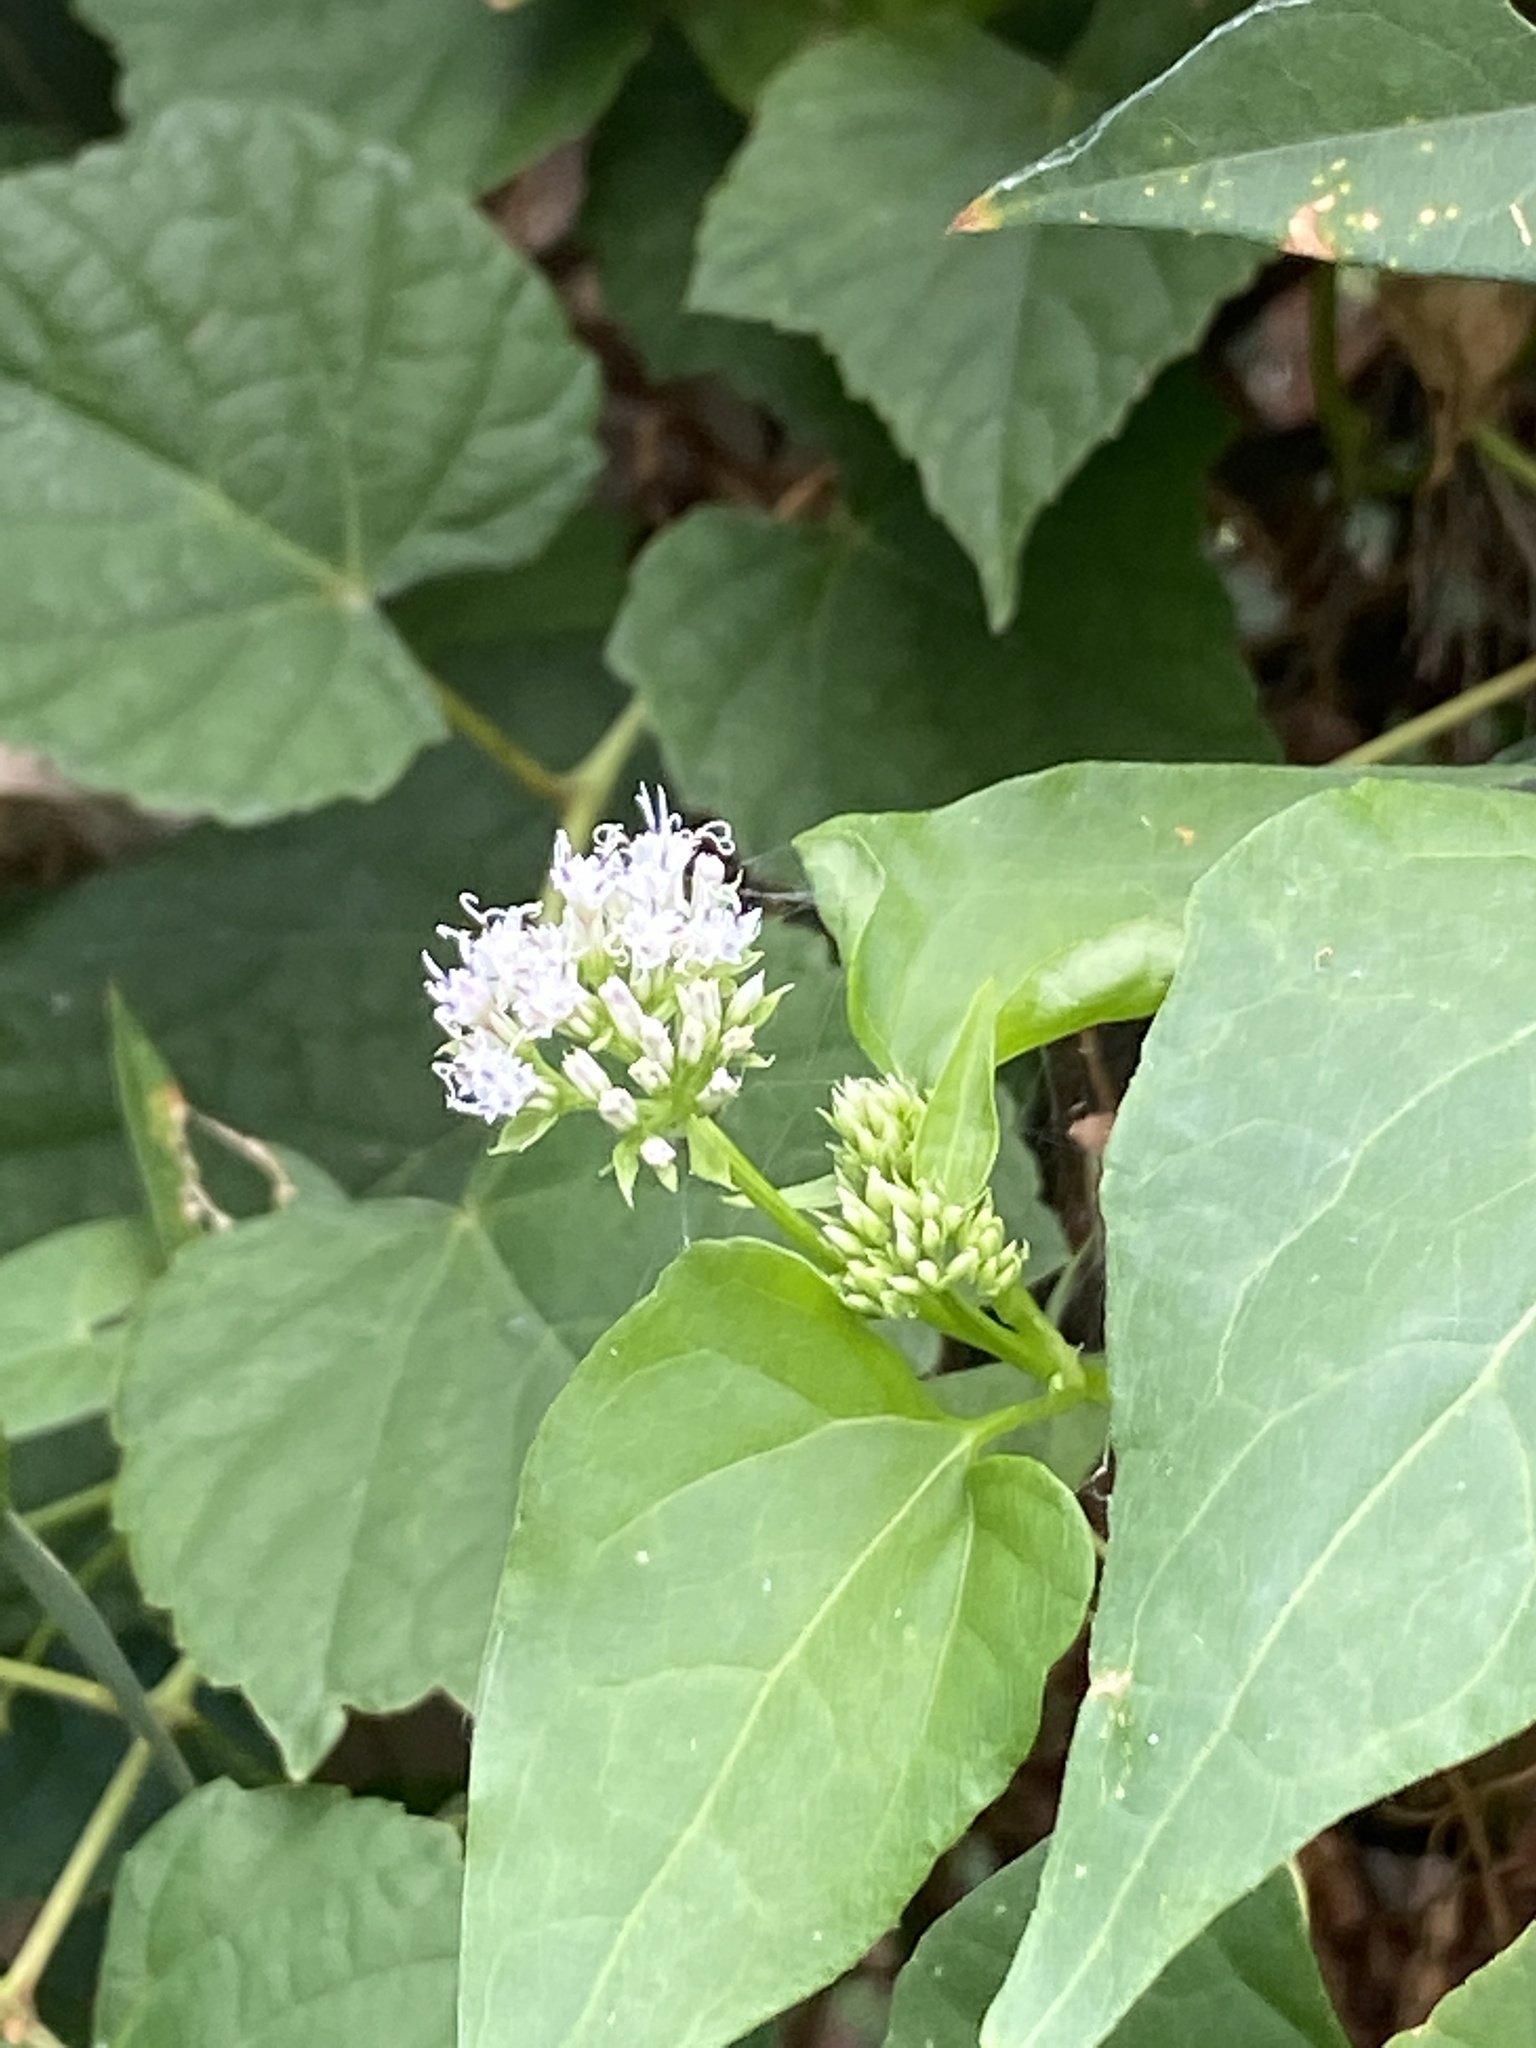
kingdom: Plantae
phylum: Tracheophyta
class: Magnoliopsida
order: Asterales
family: Asteraceae
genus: Mikania
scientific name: Mikania scandens
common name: Climbing hempvine
